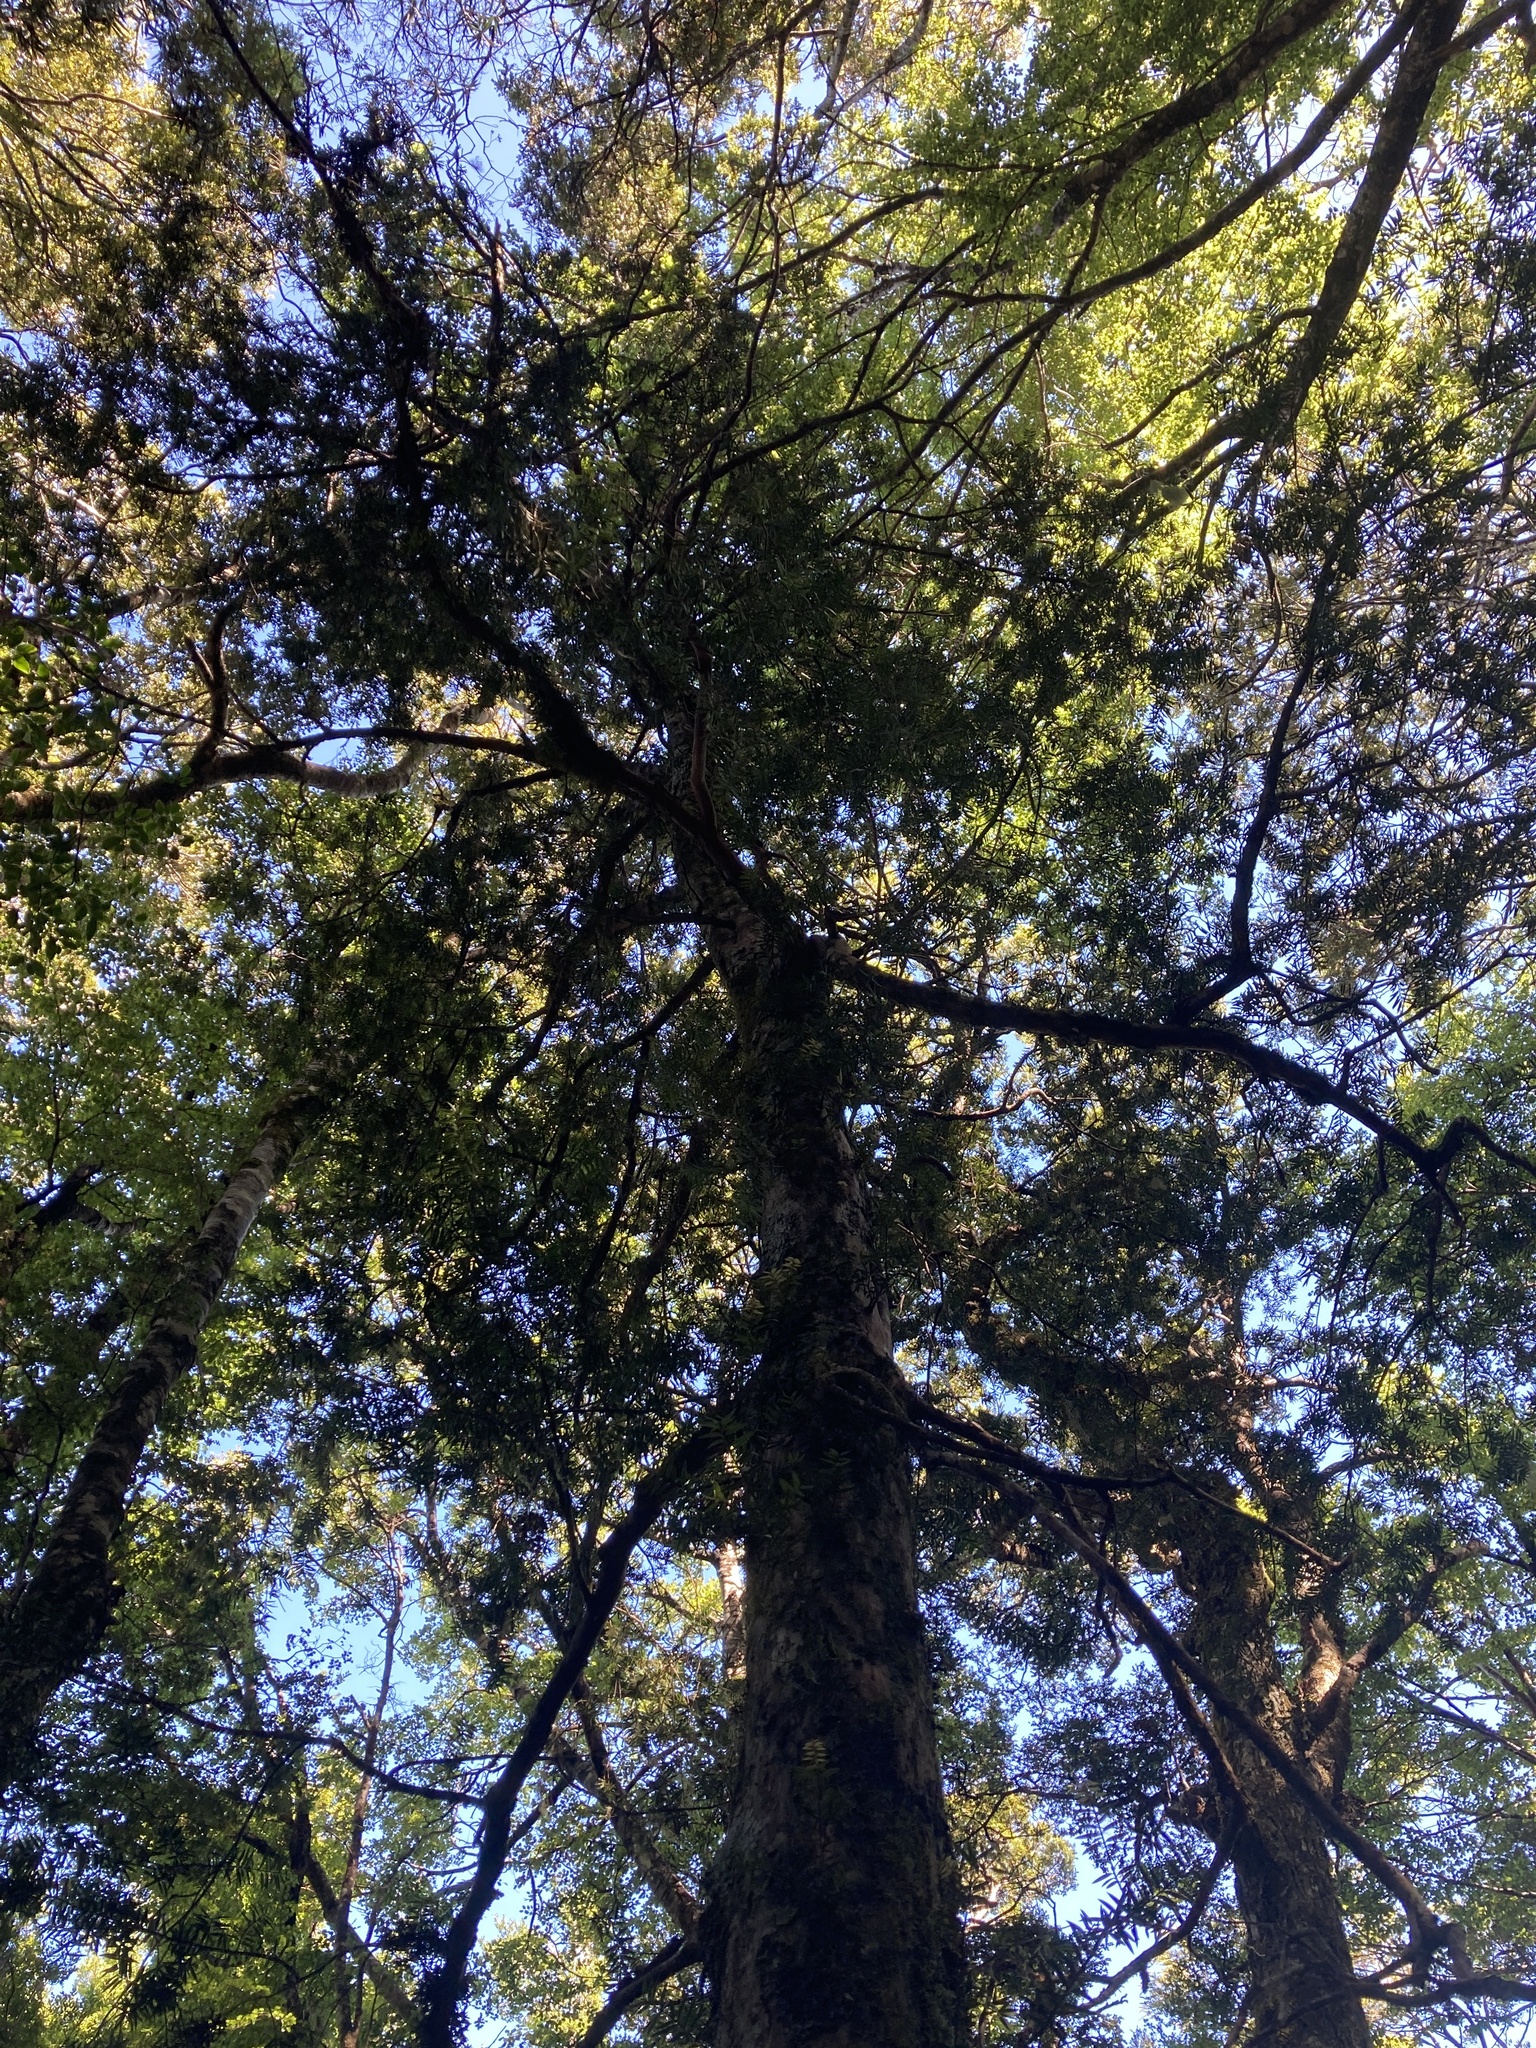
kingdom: Plantae
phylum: Tracheophyta
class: Pinopsida
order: Pinales
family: Podocarpaceae
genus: Podocarpus
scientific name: Podocarpus laetus
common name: Hall's totara
